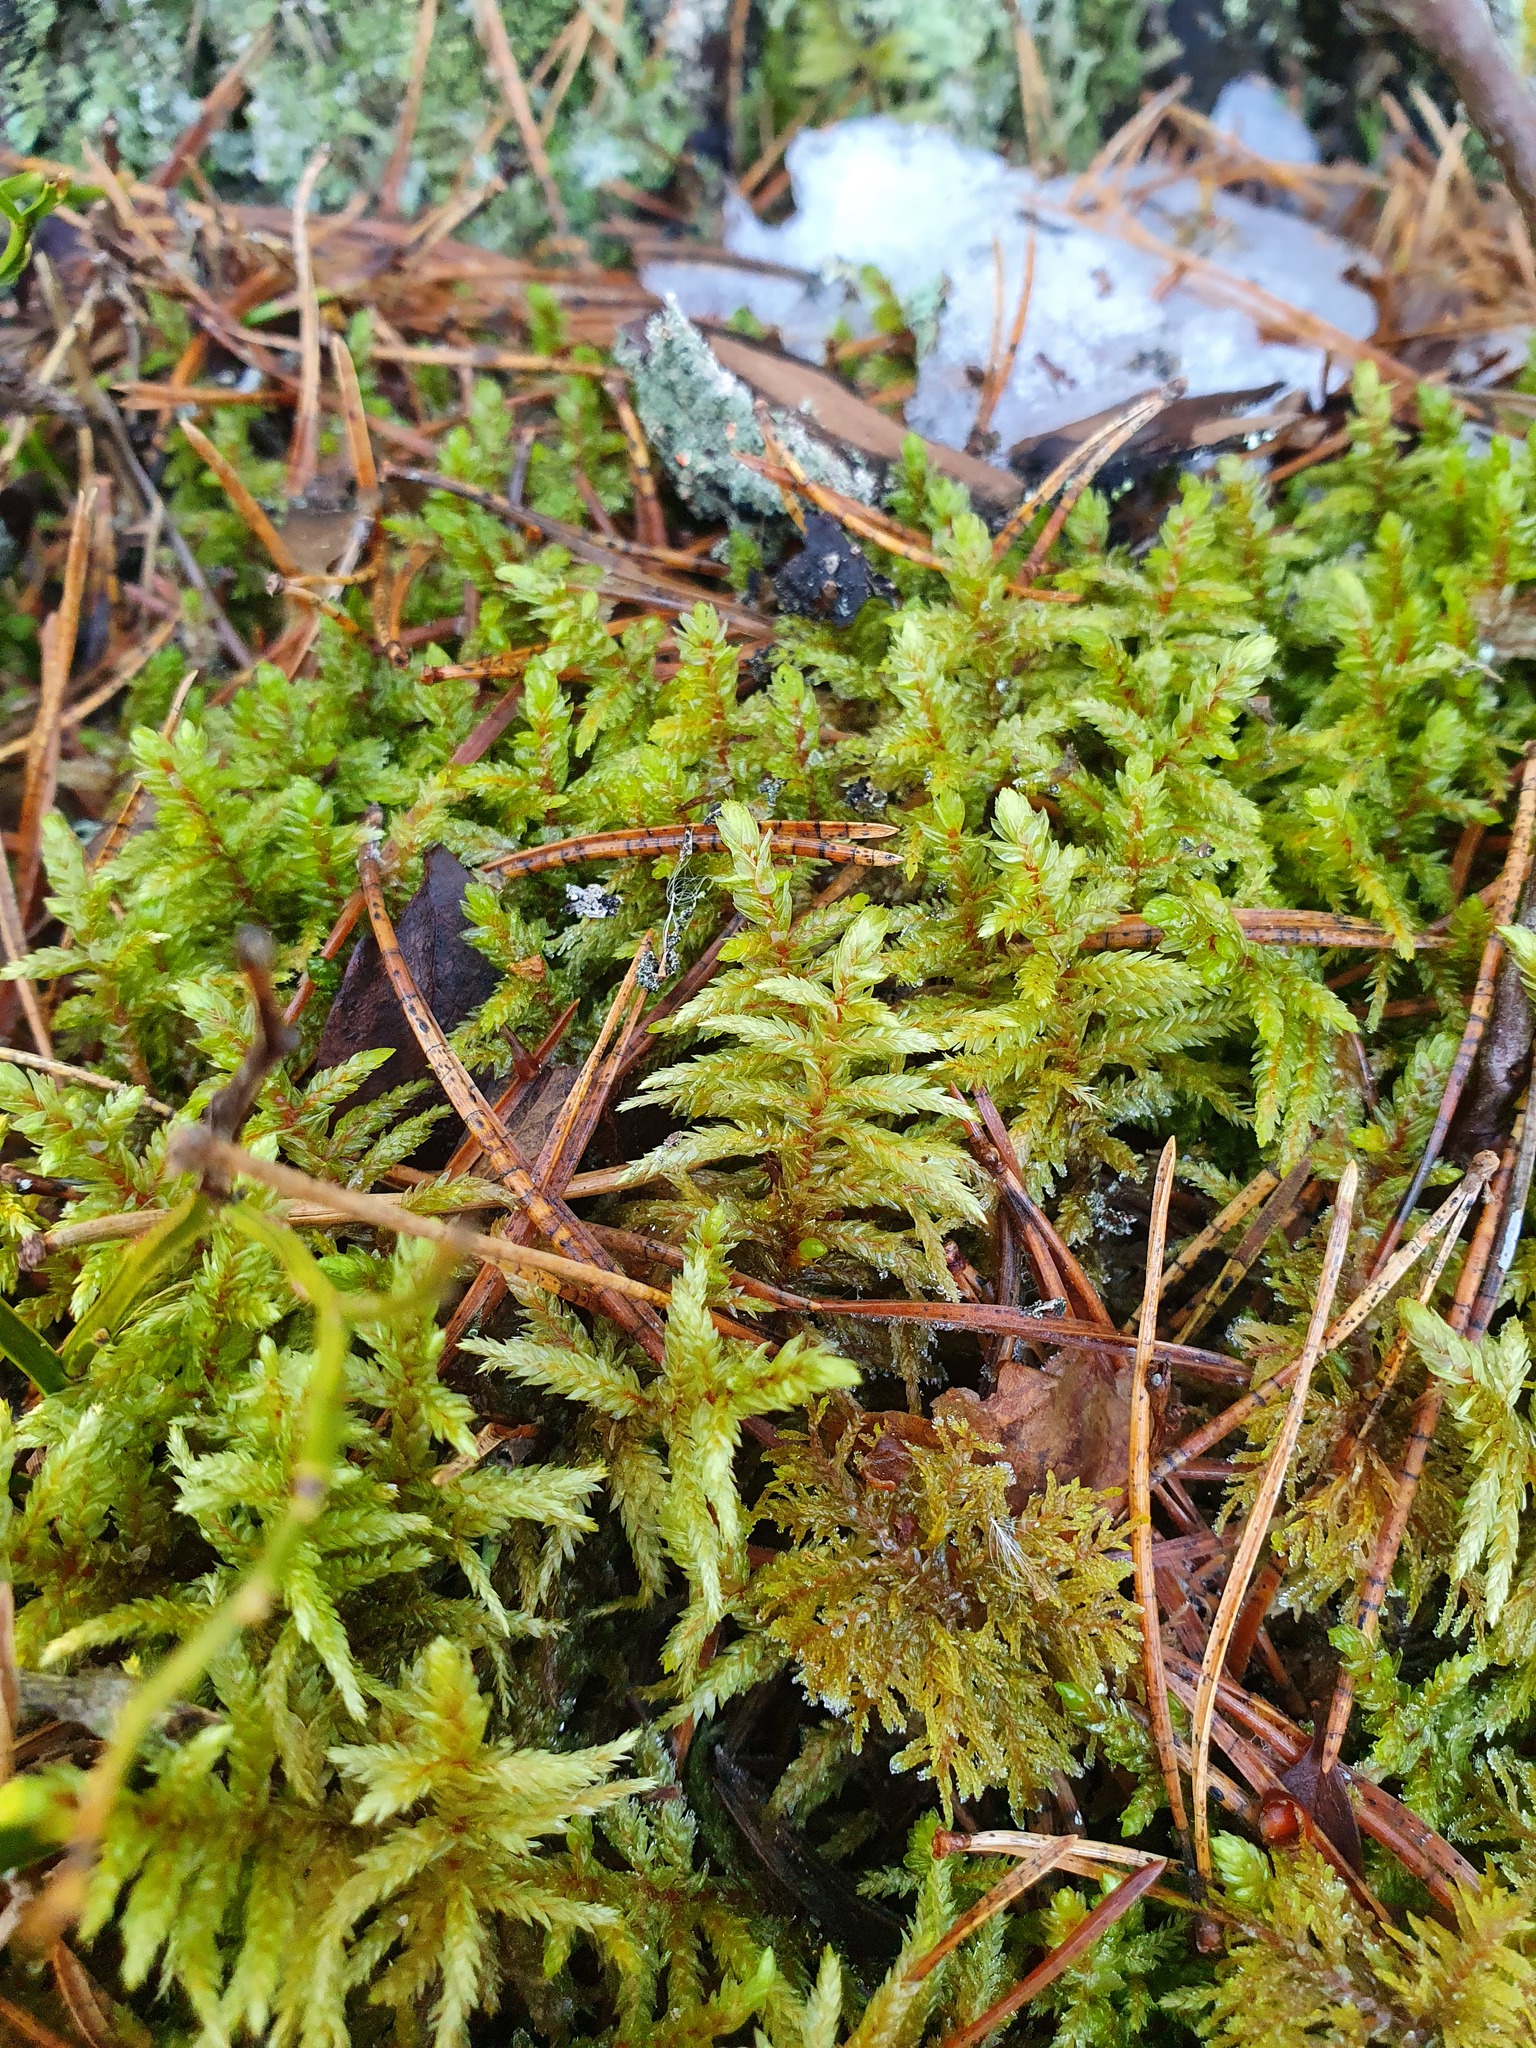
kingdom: Plantae
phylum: Bryophyta
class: Bryopsida
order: Hypnales
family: Hylocomiaceae
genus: Pleurozium
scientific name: Pleurozium schreberi
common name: Red-stemmed feather moss
